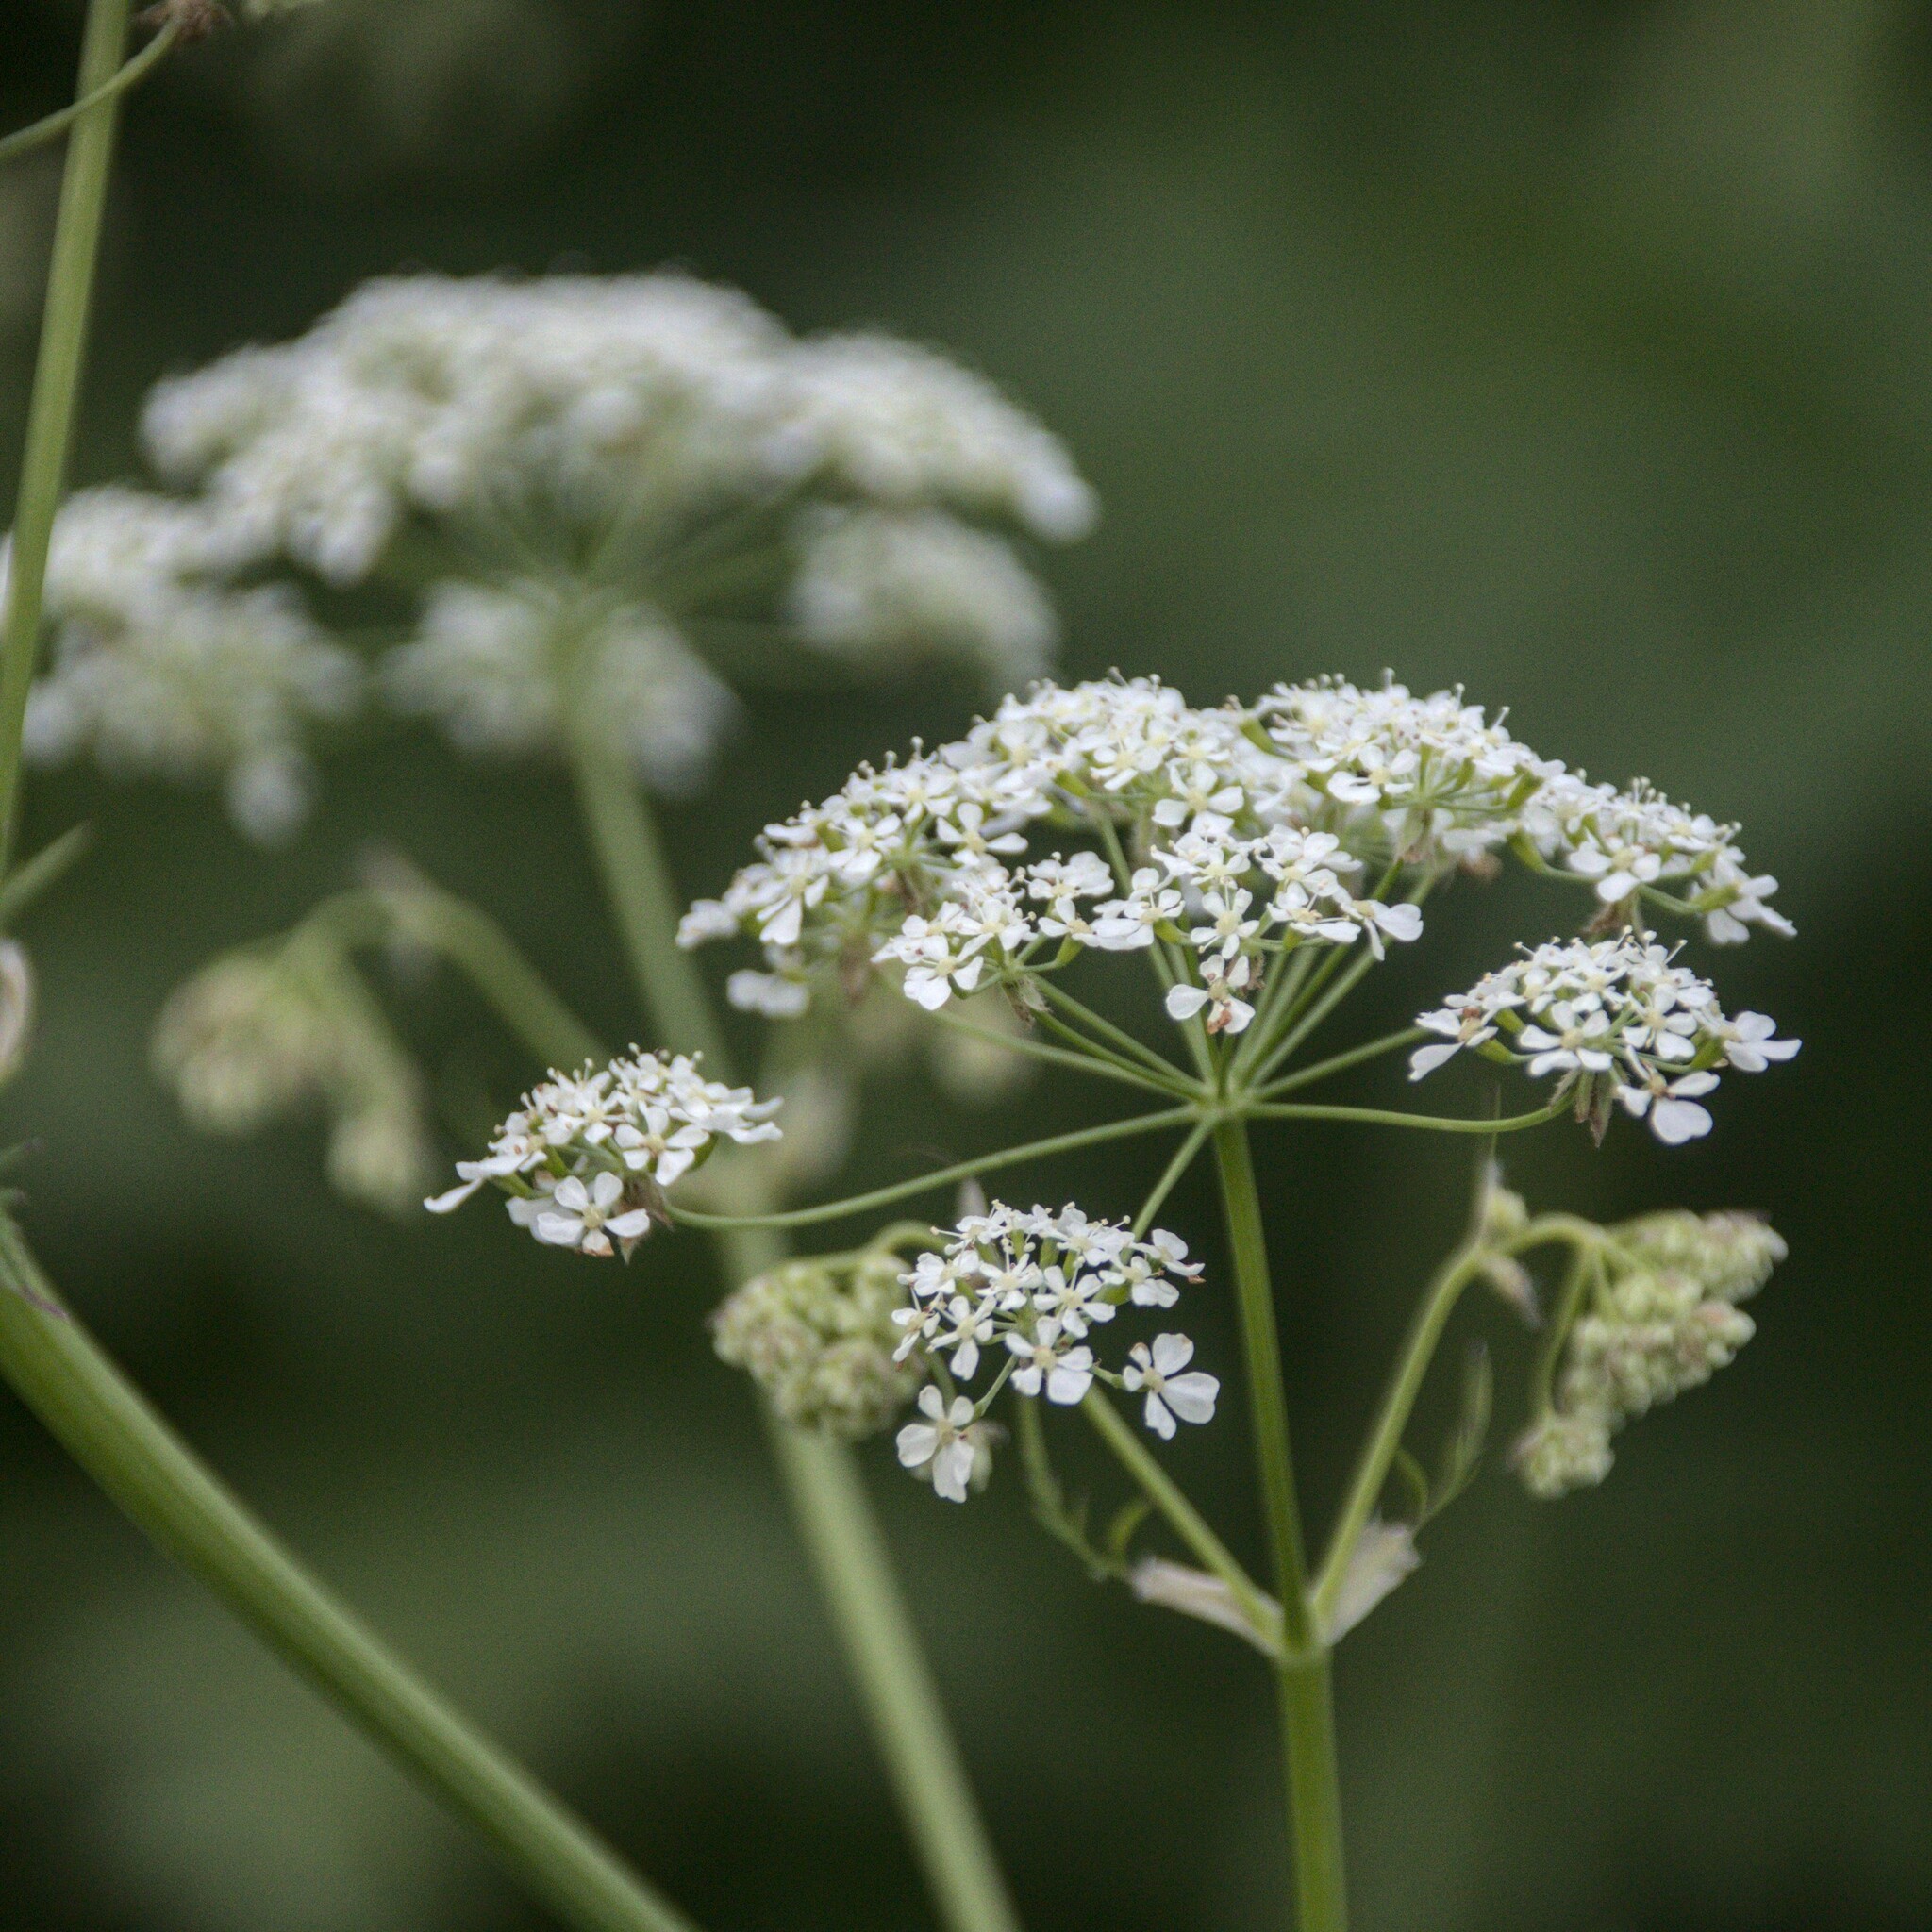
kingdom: Plantae
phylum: Tracheophyta
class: Magnoliopsida
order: Apiales
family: Apiaceae
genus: Anthriscus
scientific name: Anthriscus sylvestris
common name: Cow parsley
